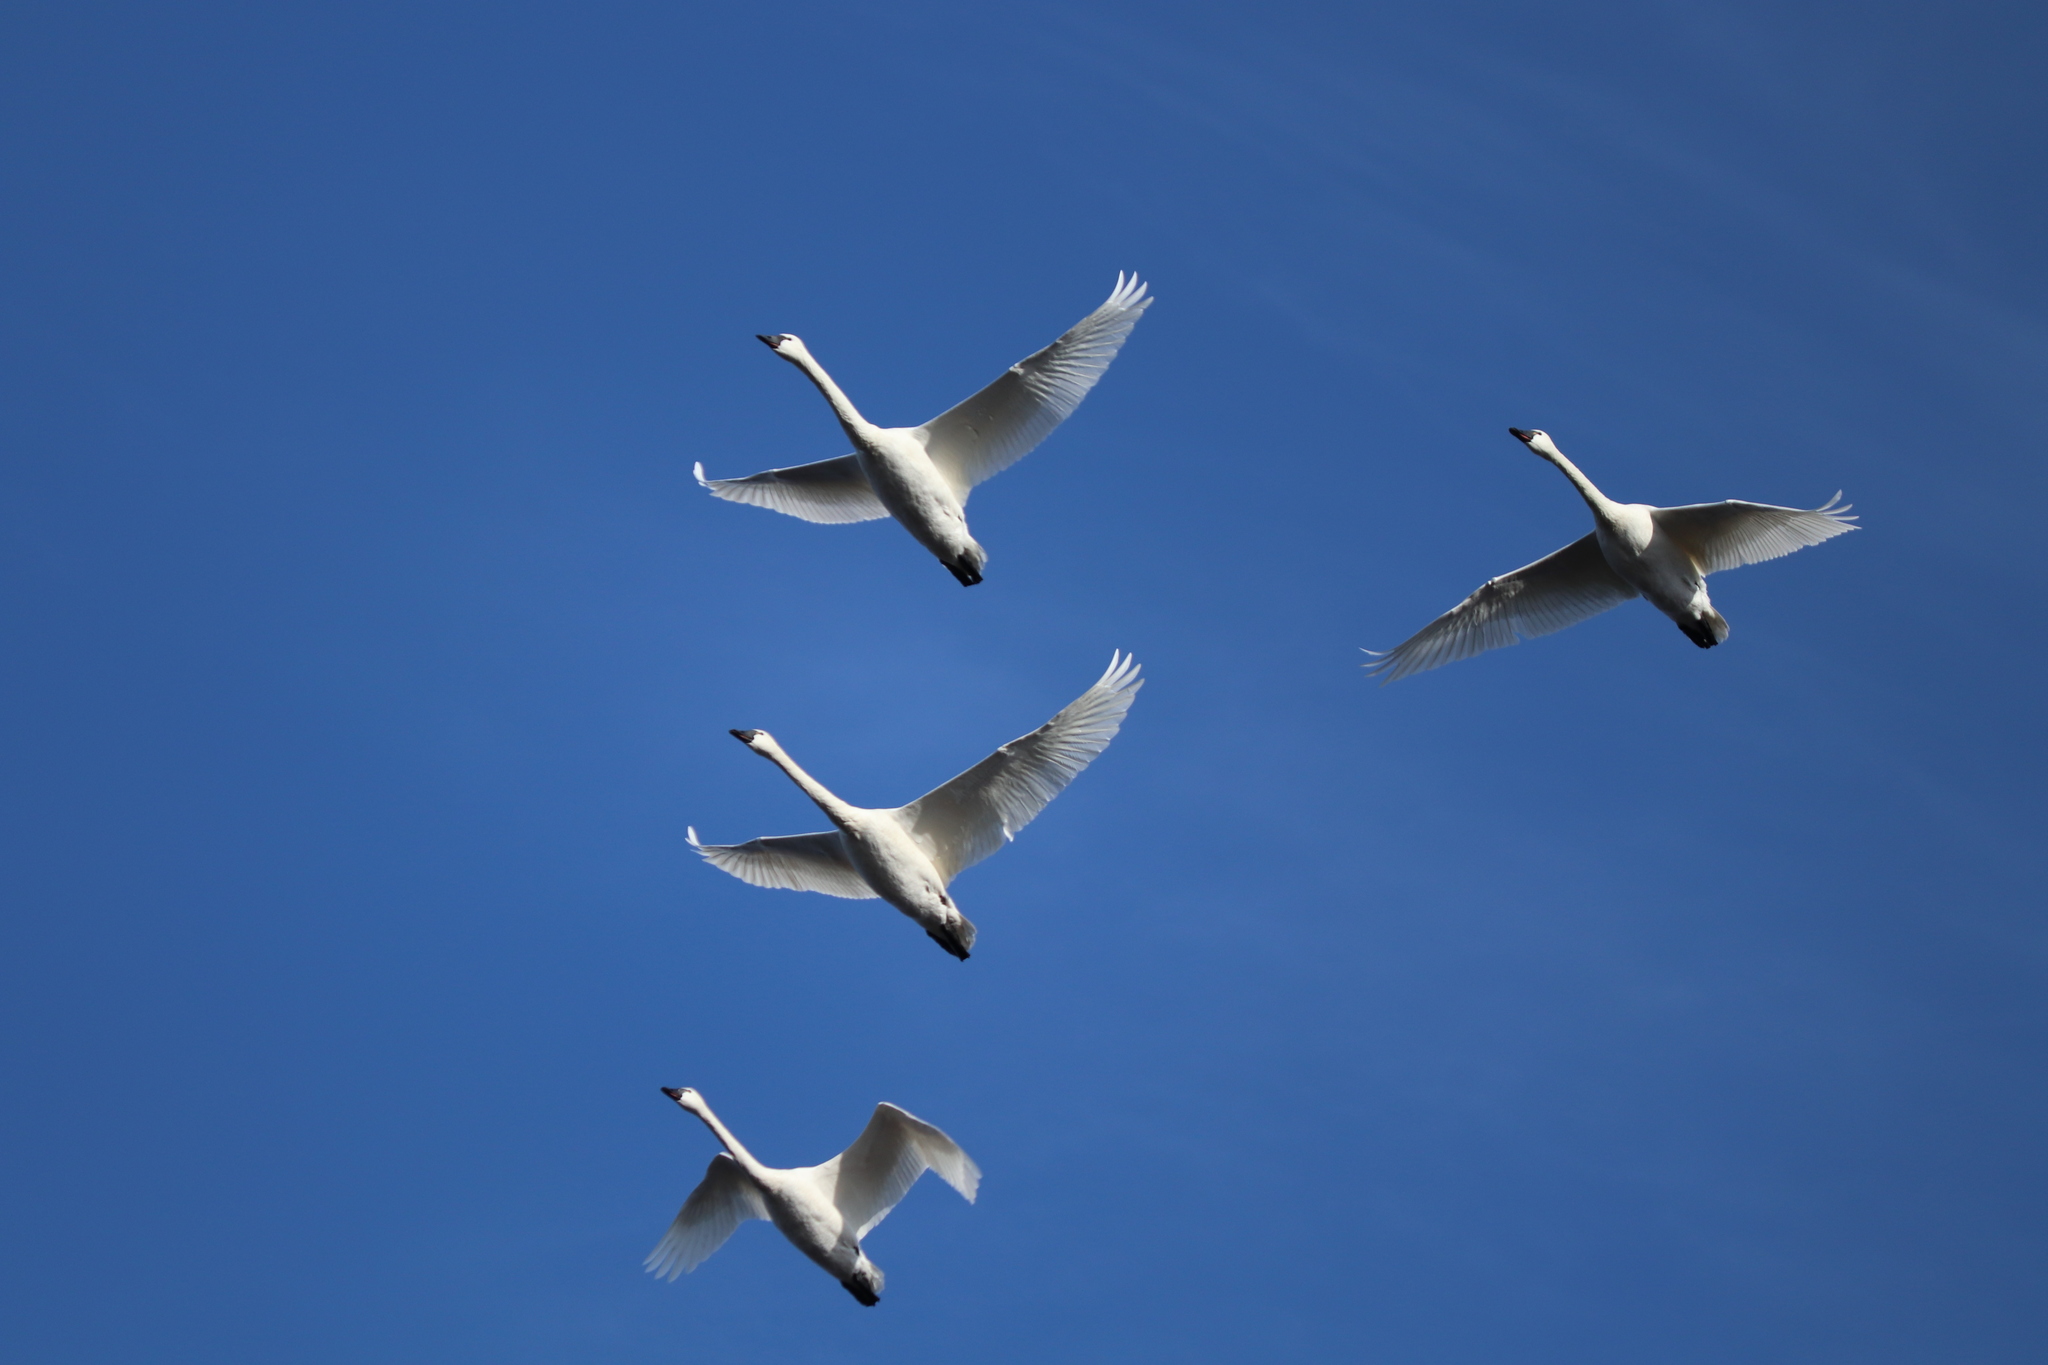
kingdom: Animalia
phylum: Chordata
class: Aves
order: Anseriformes
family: Anatidae
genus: Cygnus
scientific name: Cygnus columbianus
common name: Tundra swan
